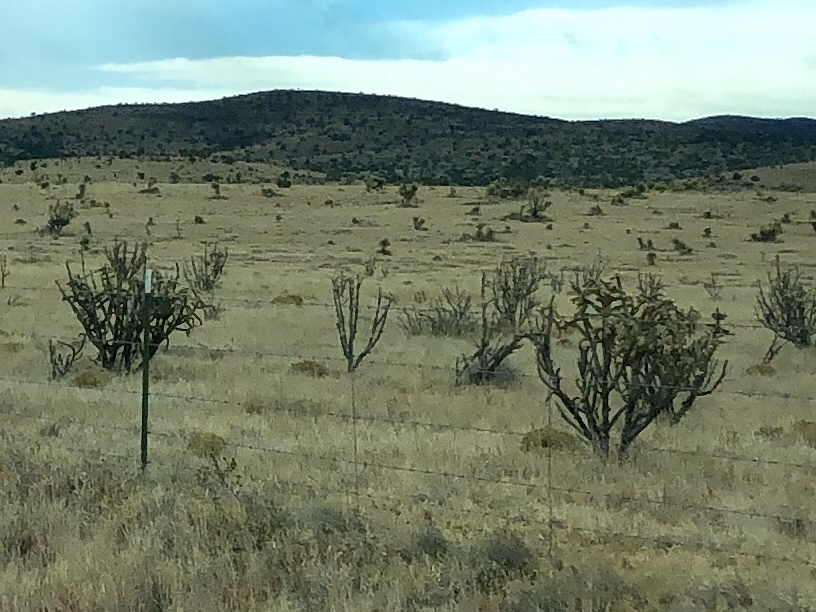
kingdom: Plantae
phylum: Tracheophyta
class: Magnoliopsida
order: Caryophyllales
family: Cactaceae
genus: Cylindropuntia
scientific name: Cylindropuntia imbricata
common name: Candelabrum cactus
